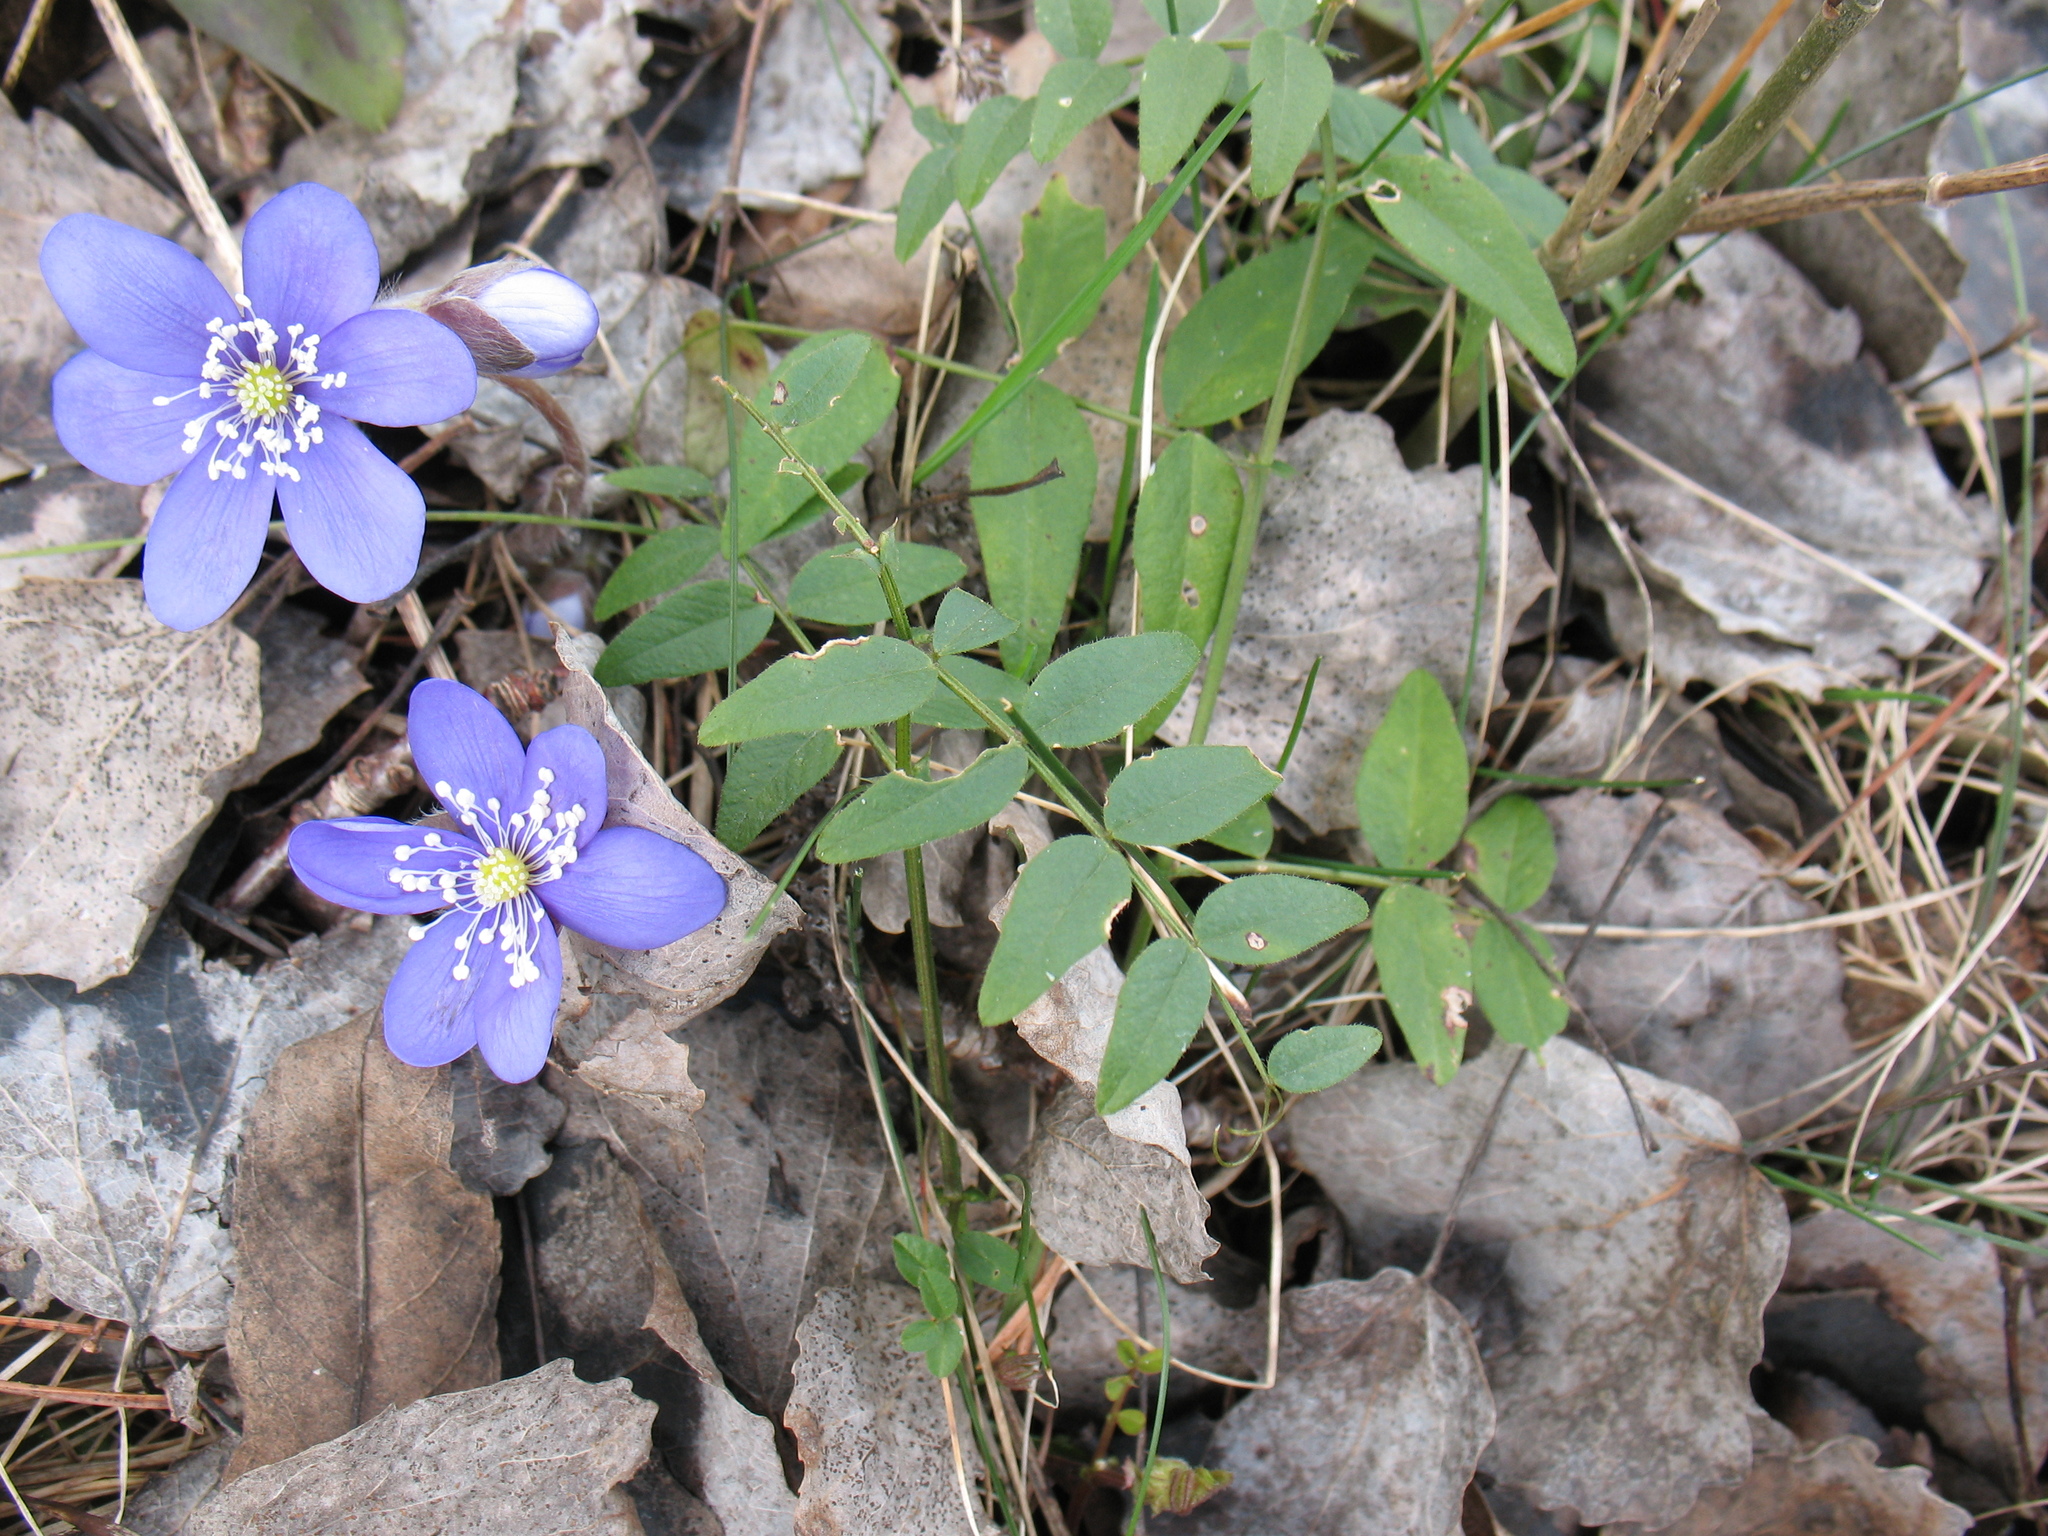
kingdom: Plantae
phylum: Tracheophyta
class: Magnoliopsida
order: Fabales
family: Fabaceae
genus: Vicia
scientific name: Vicia sepium
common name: Bush vetch
